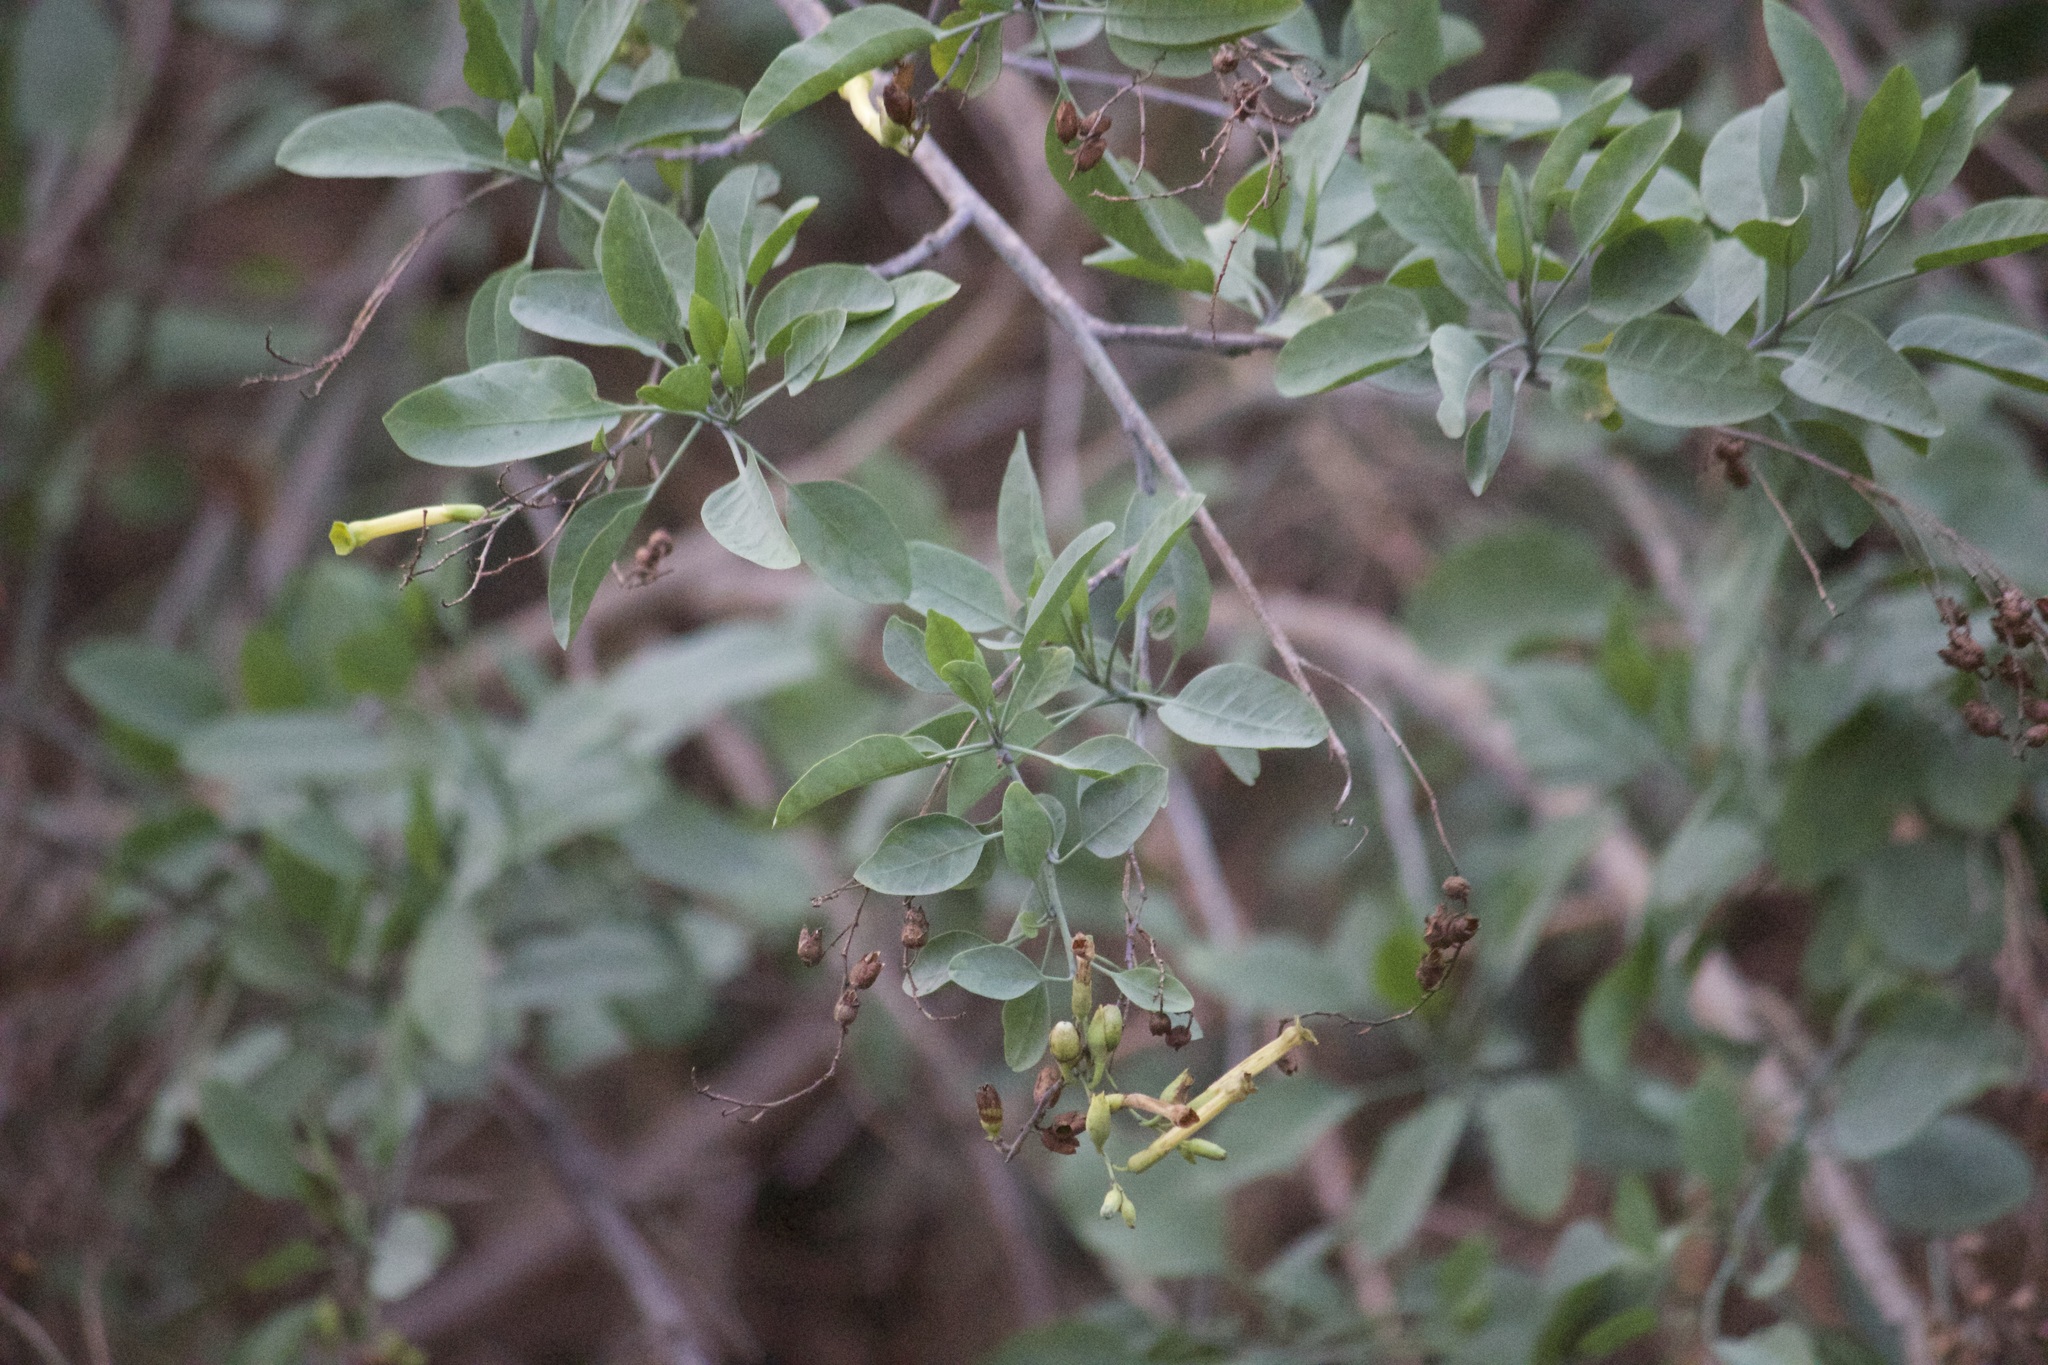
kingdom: Plantae
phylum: Tracheophyta
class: Magnoliopsida
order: Solanales
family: Solanaceae
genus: Nicotiana
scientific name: Nicotiana glauca
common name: Tree tobacco
